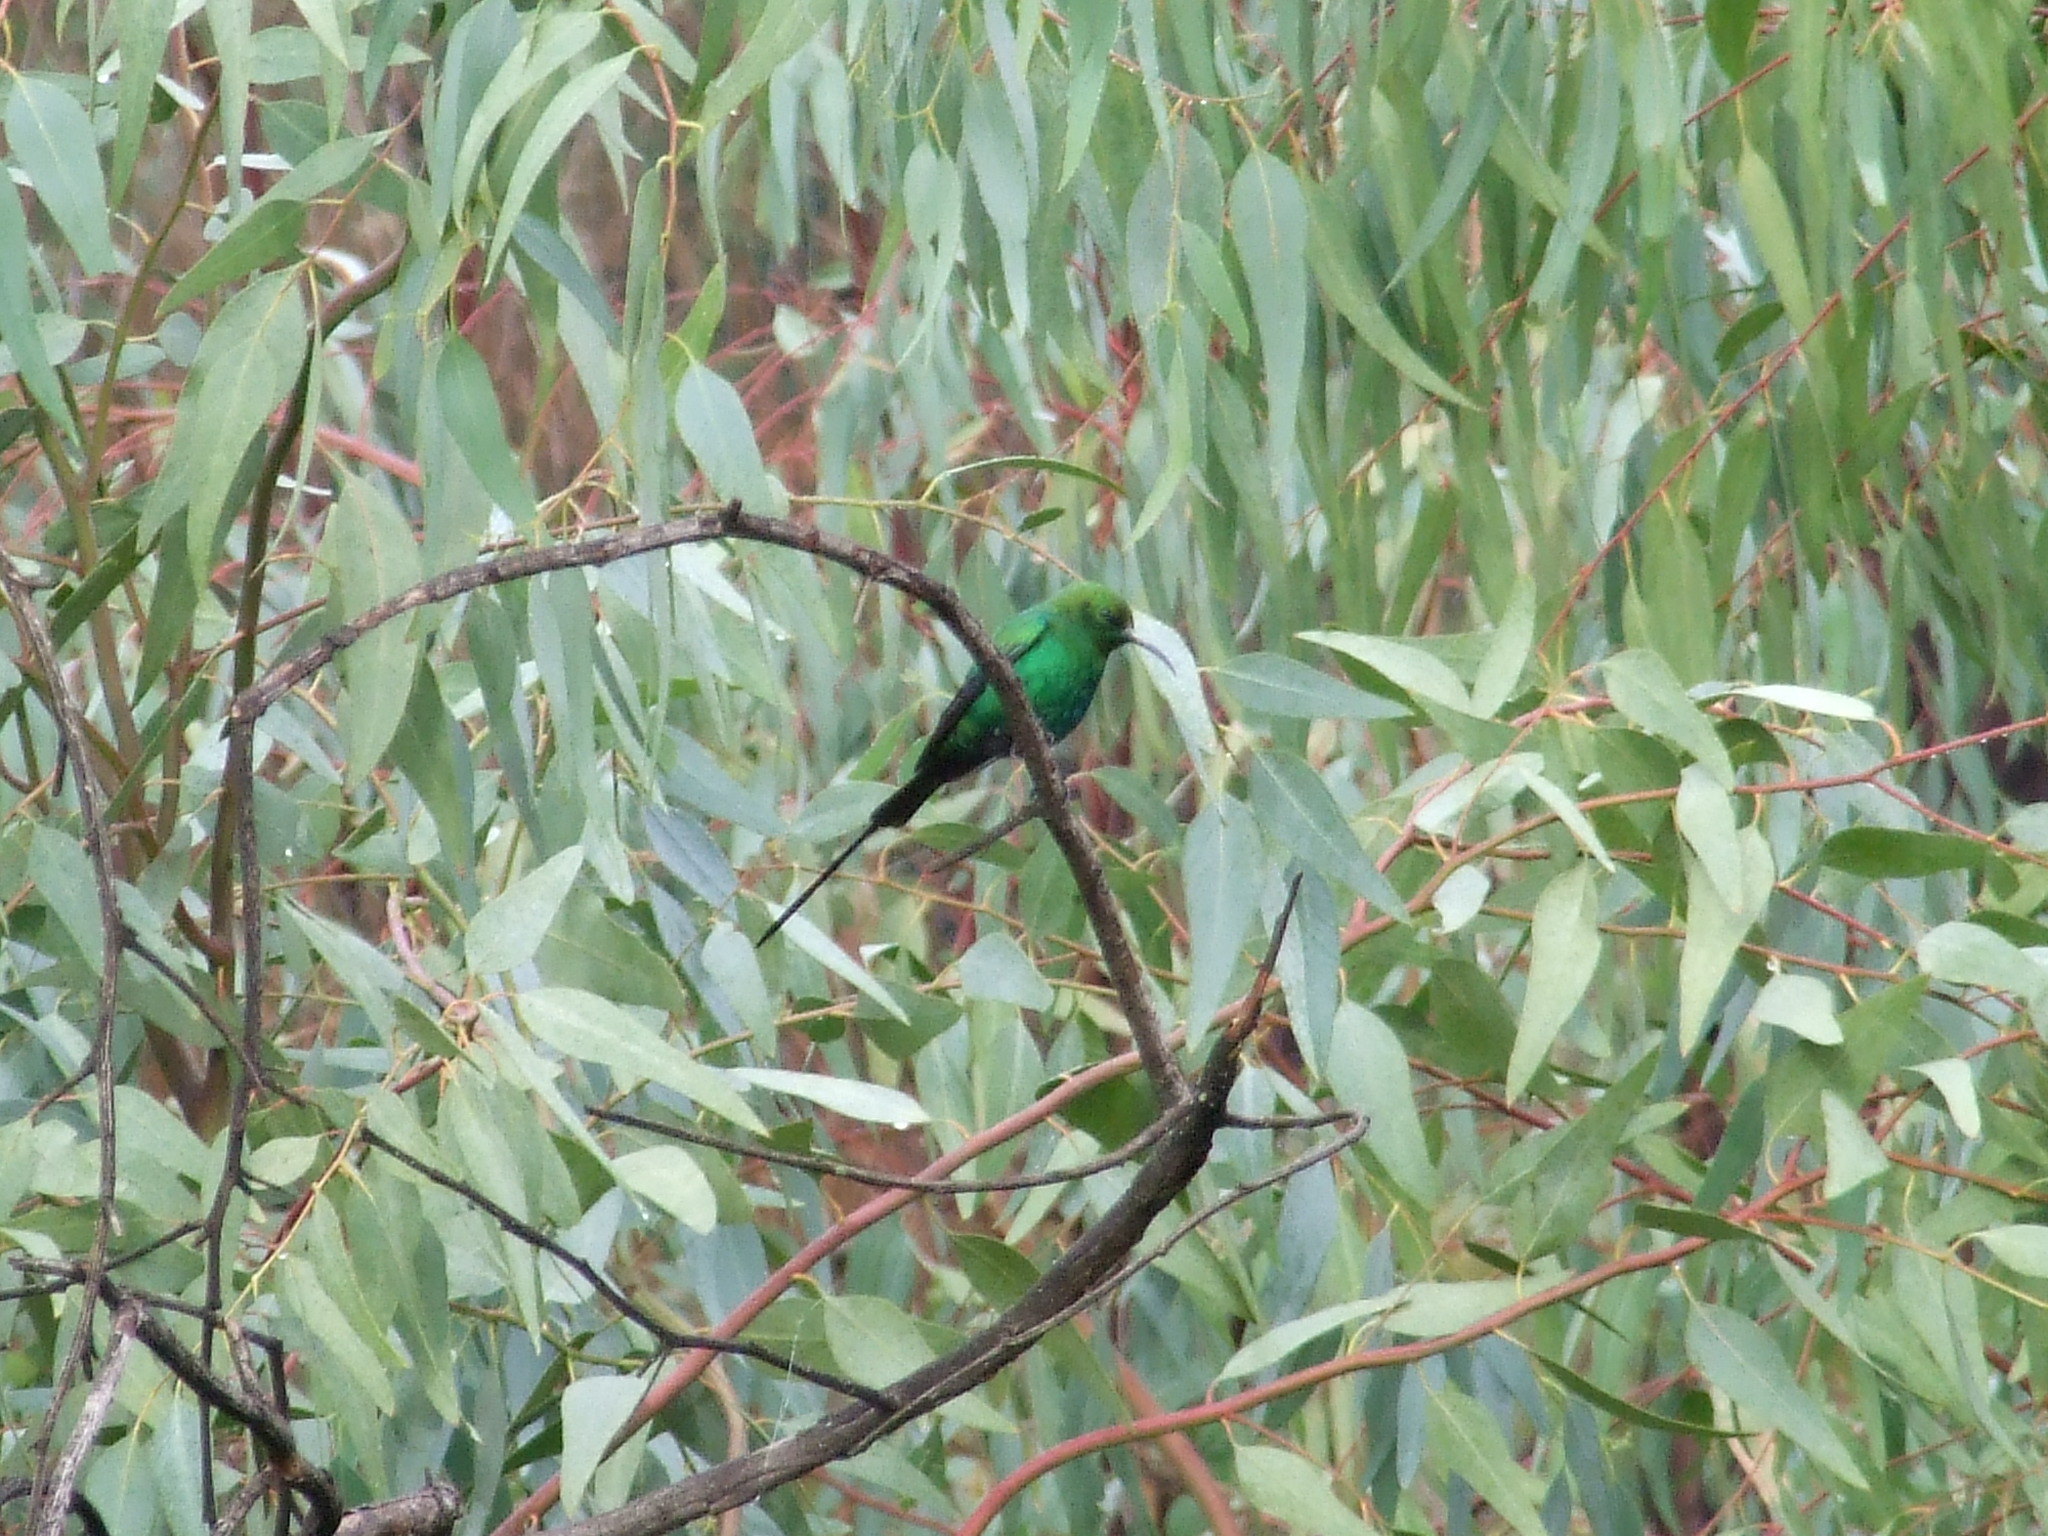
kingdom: Animalia
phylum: Chordata
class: Aves
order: Passeriformes
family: Nectariniidae
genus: Nectarinia
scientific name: Nectarinia famosa
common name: Malachite sunbird
